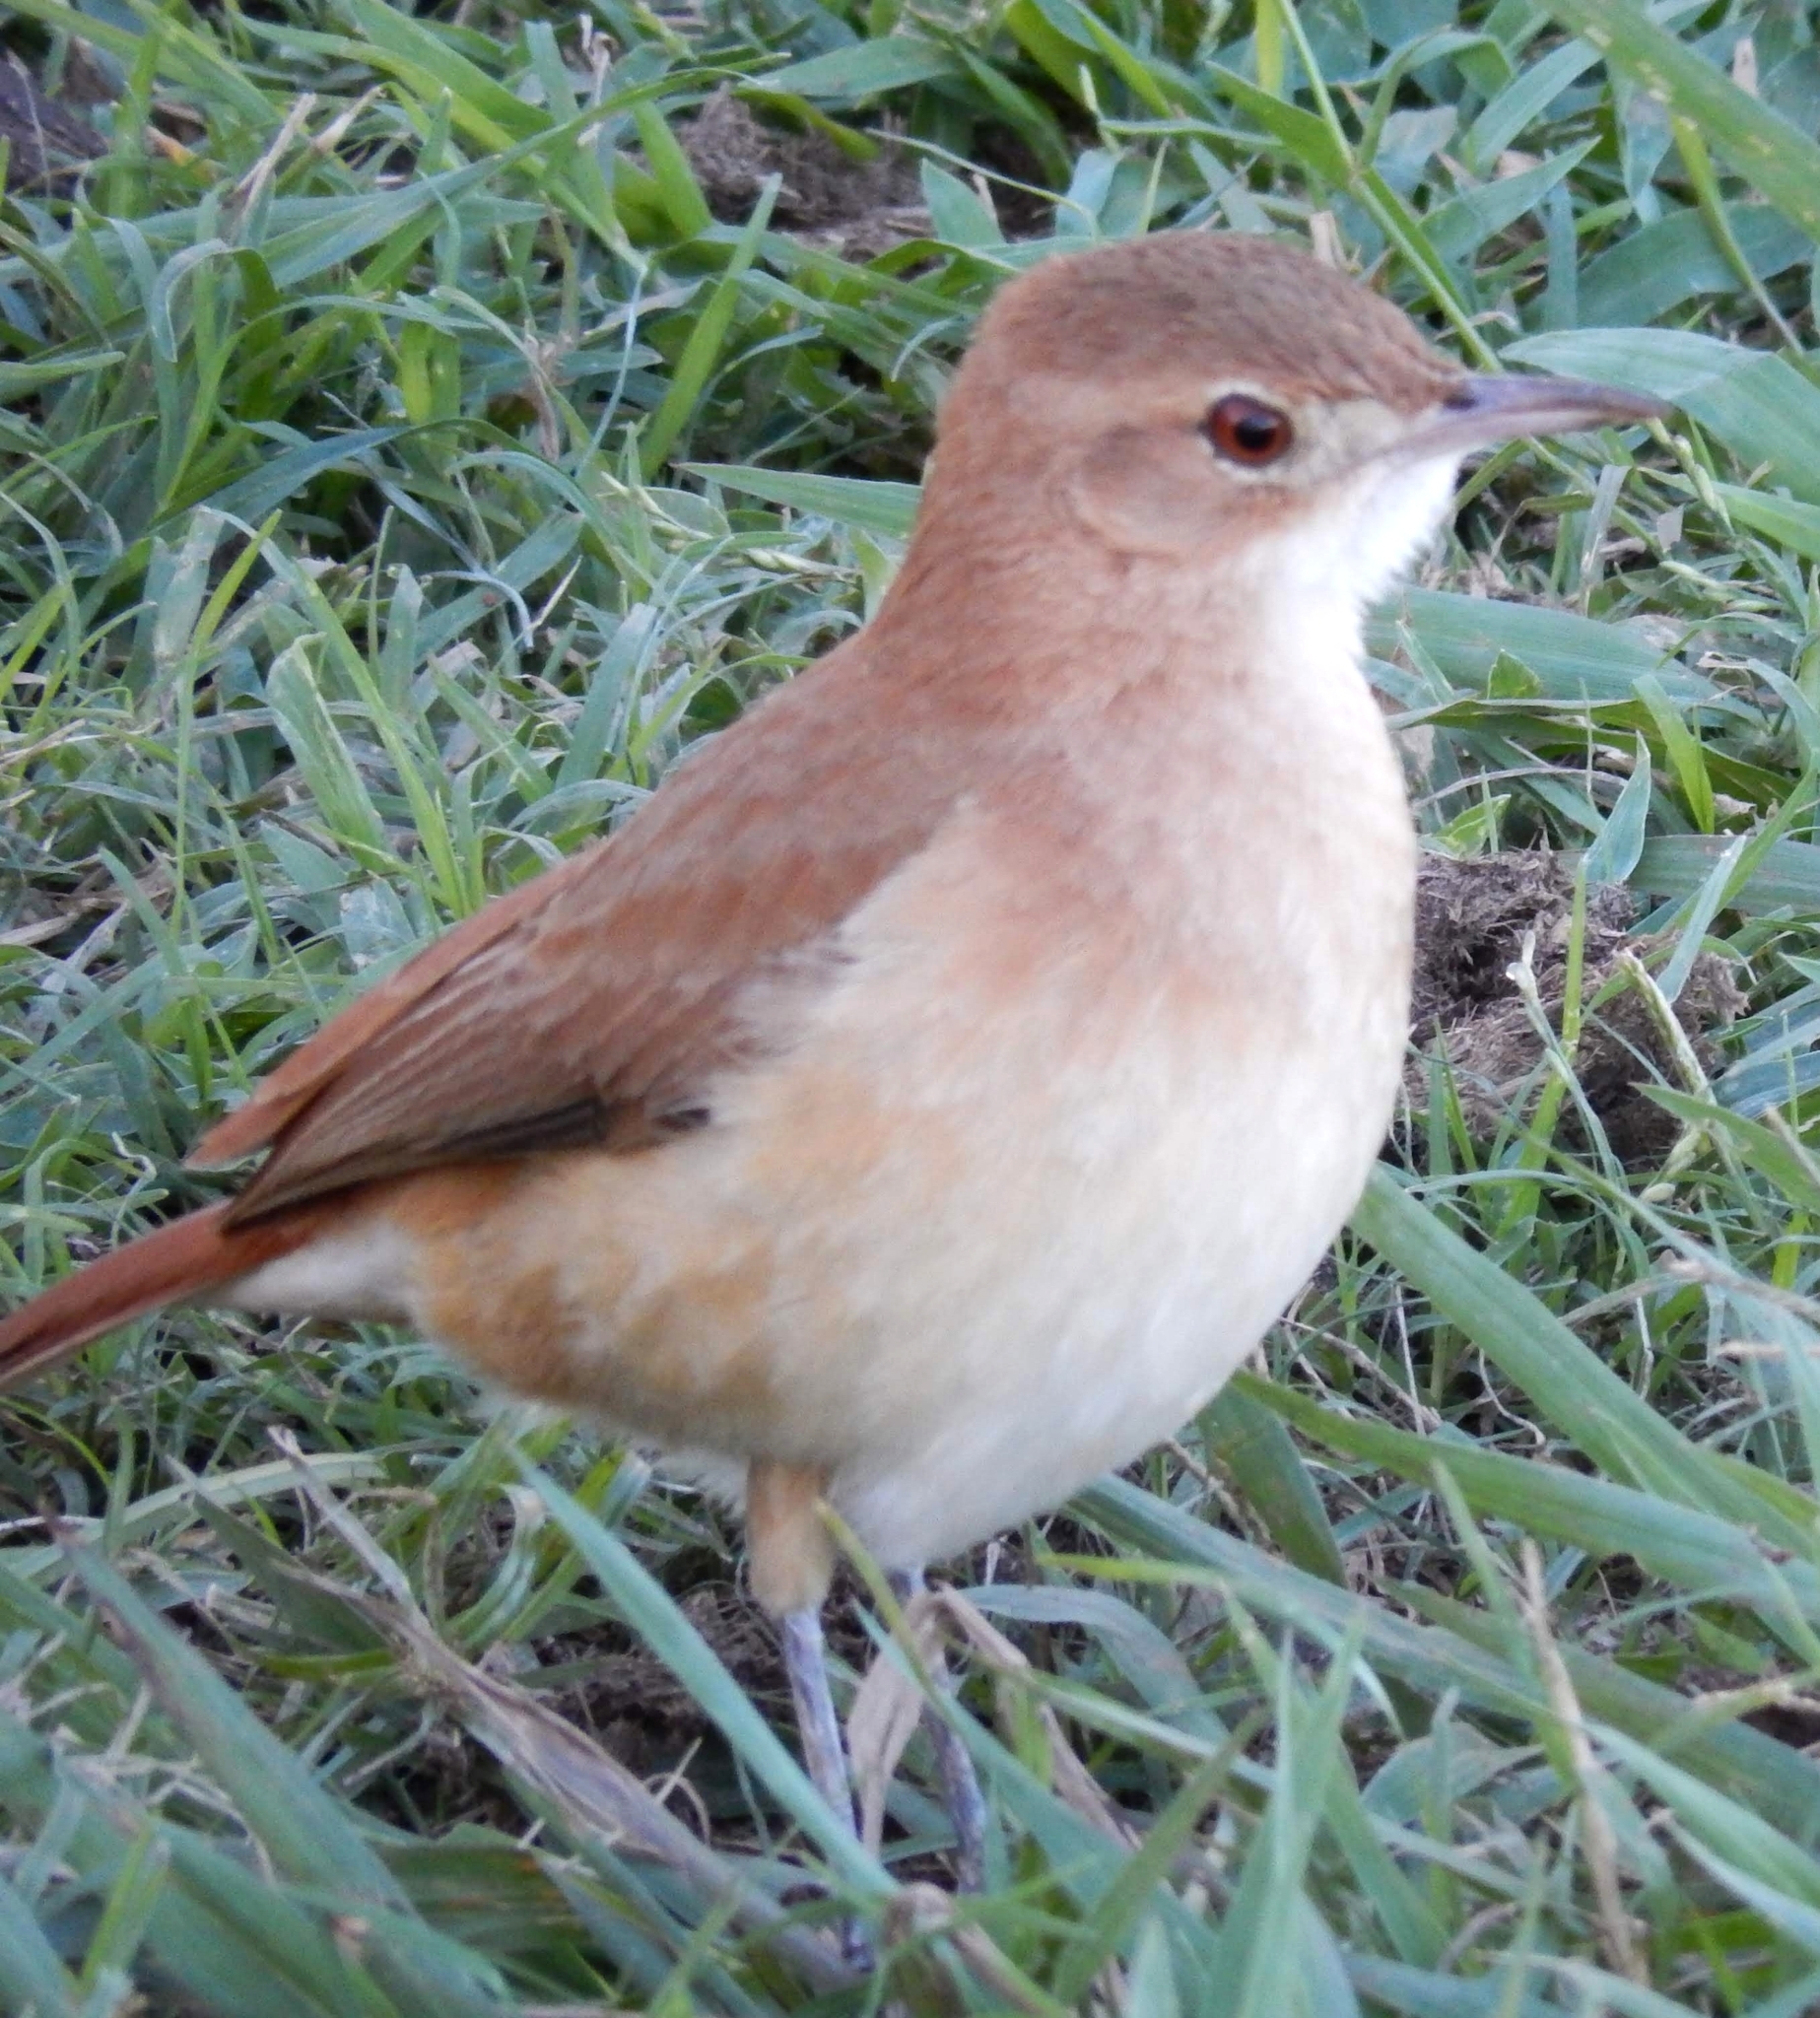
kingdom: Animalia
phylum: Chordata
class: Aves
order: Passeriformes
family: Furnariidae
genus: Furnarius
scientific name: Furnarius rufus
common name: Rufous hornero
